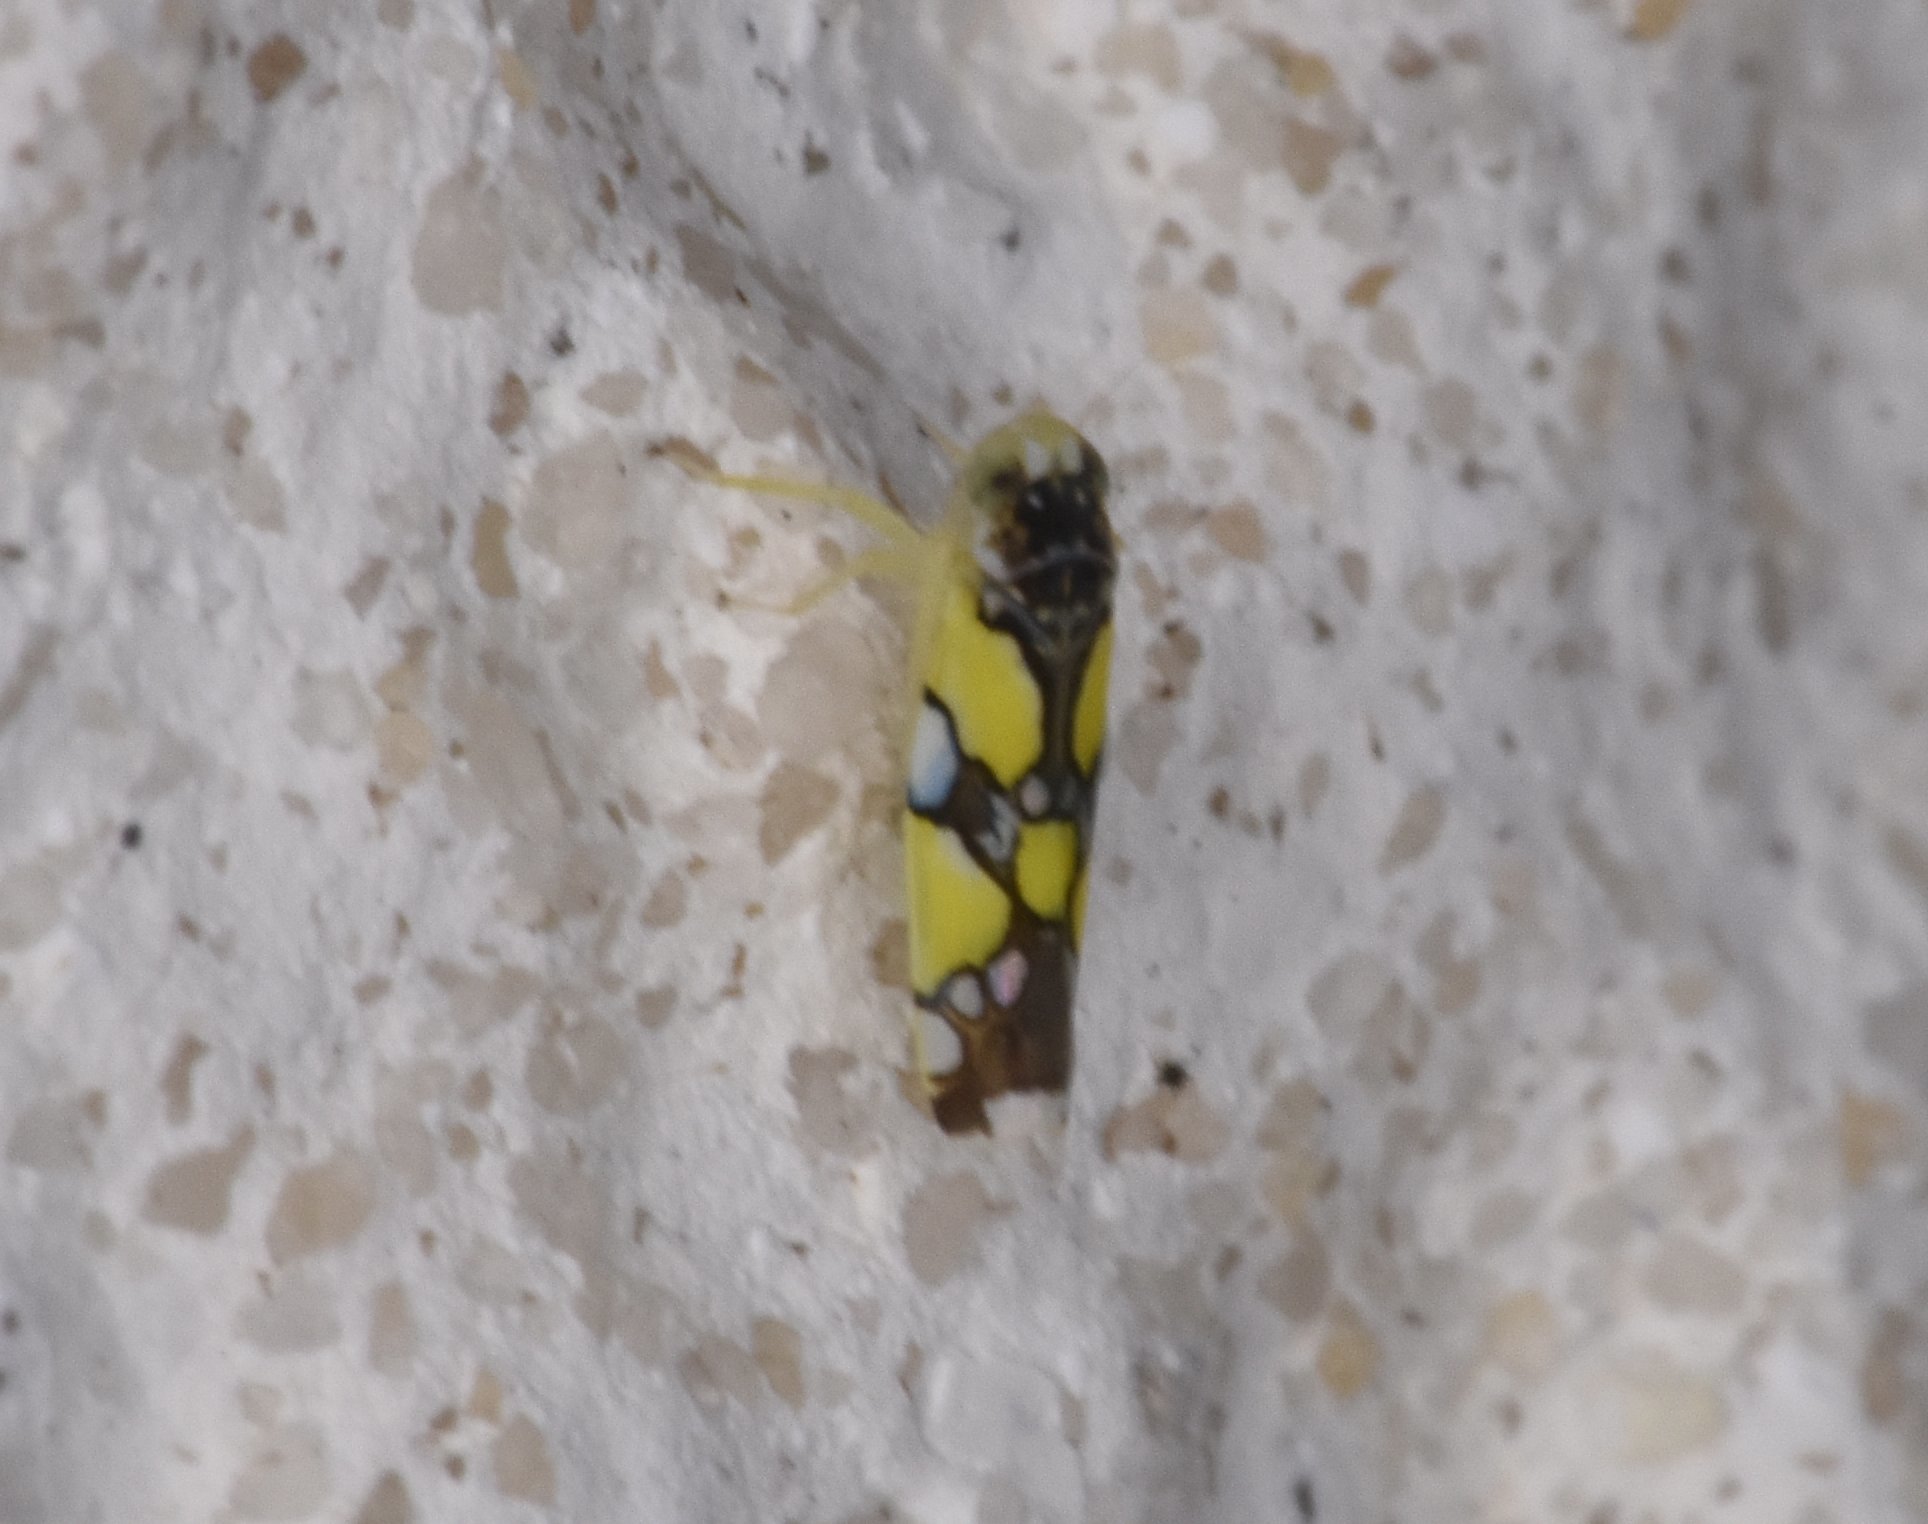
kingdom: Animalia
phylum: Arthropoda
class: Insecta
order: Hemiptera
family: Cicadellidae
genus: Protalebrella
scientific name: Protalebrella brasiliensis
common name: Brasilian leafhopper
